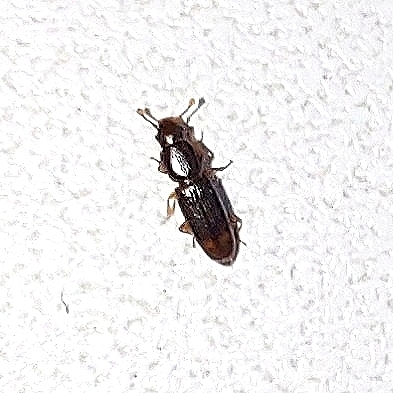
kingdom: Animalia
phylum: Arthropoda
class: Insecta
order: Coleoptera
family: Monotomidae
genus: Rhizophagus
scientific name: Rhizophagus bipustulatus
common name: Root-eating beetle
